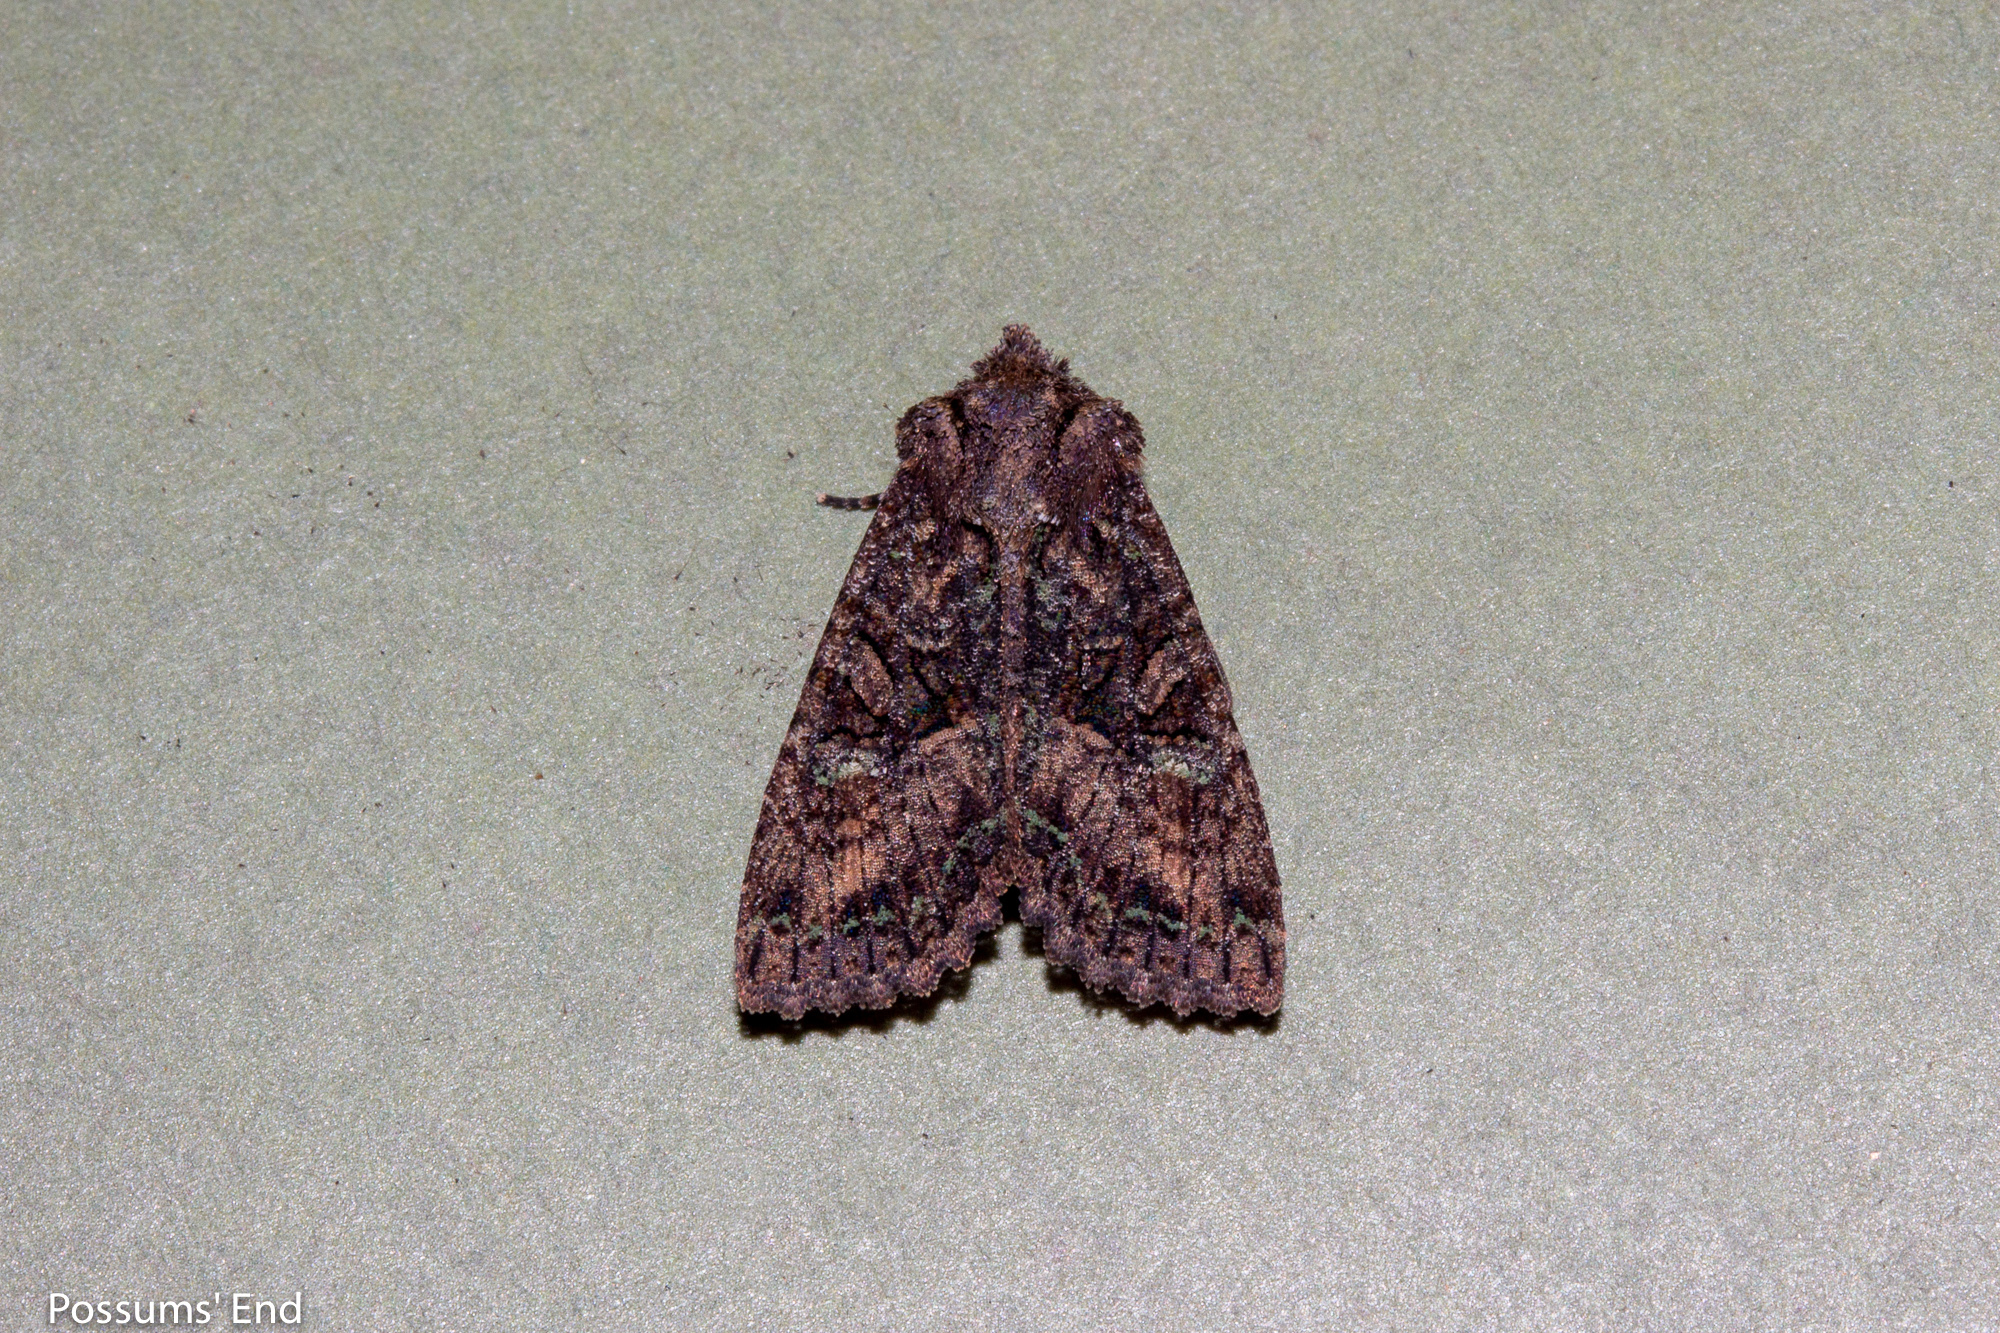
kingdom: Animalia
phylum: Arthropoda
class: Insecta
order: Lepidoptera
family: Noctuidae
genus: Meterana
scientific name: Meterana ochthistis
